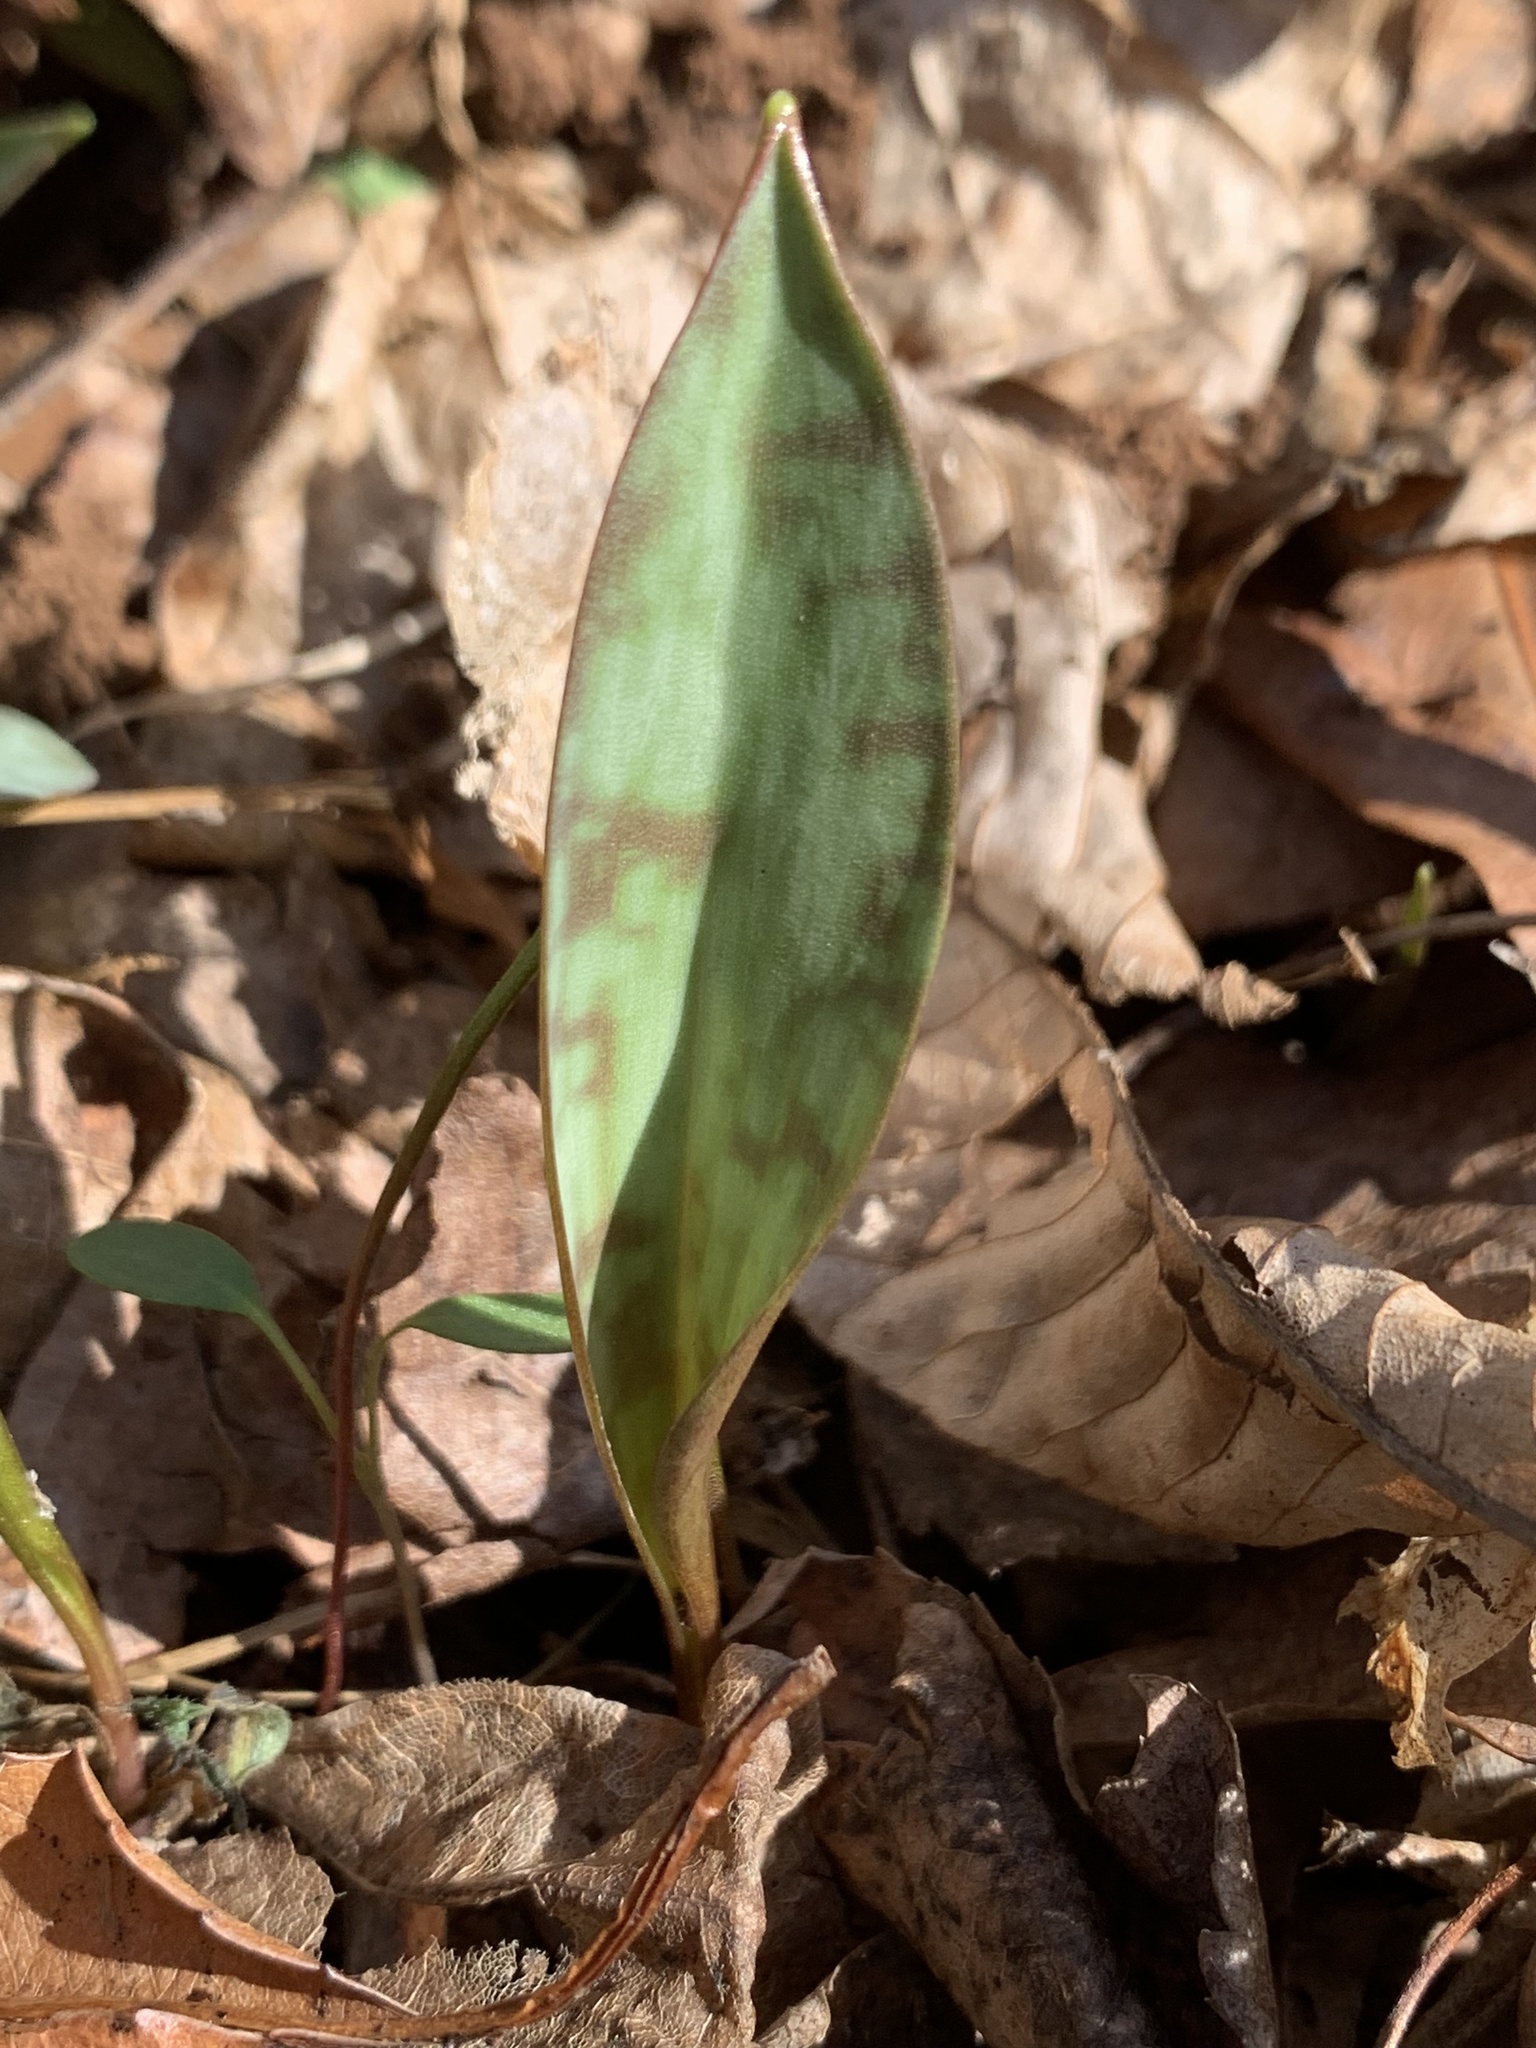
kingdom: Plantae
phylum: Tracheophyta
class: Liliopsida
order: Liliales
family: Liliaceae
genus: Erythronium
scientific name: Erythronium americanum
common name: Yellow adder's-tongue
